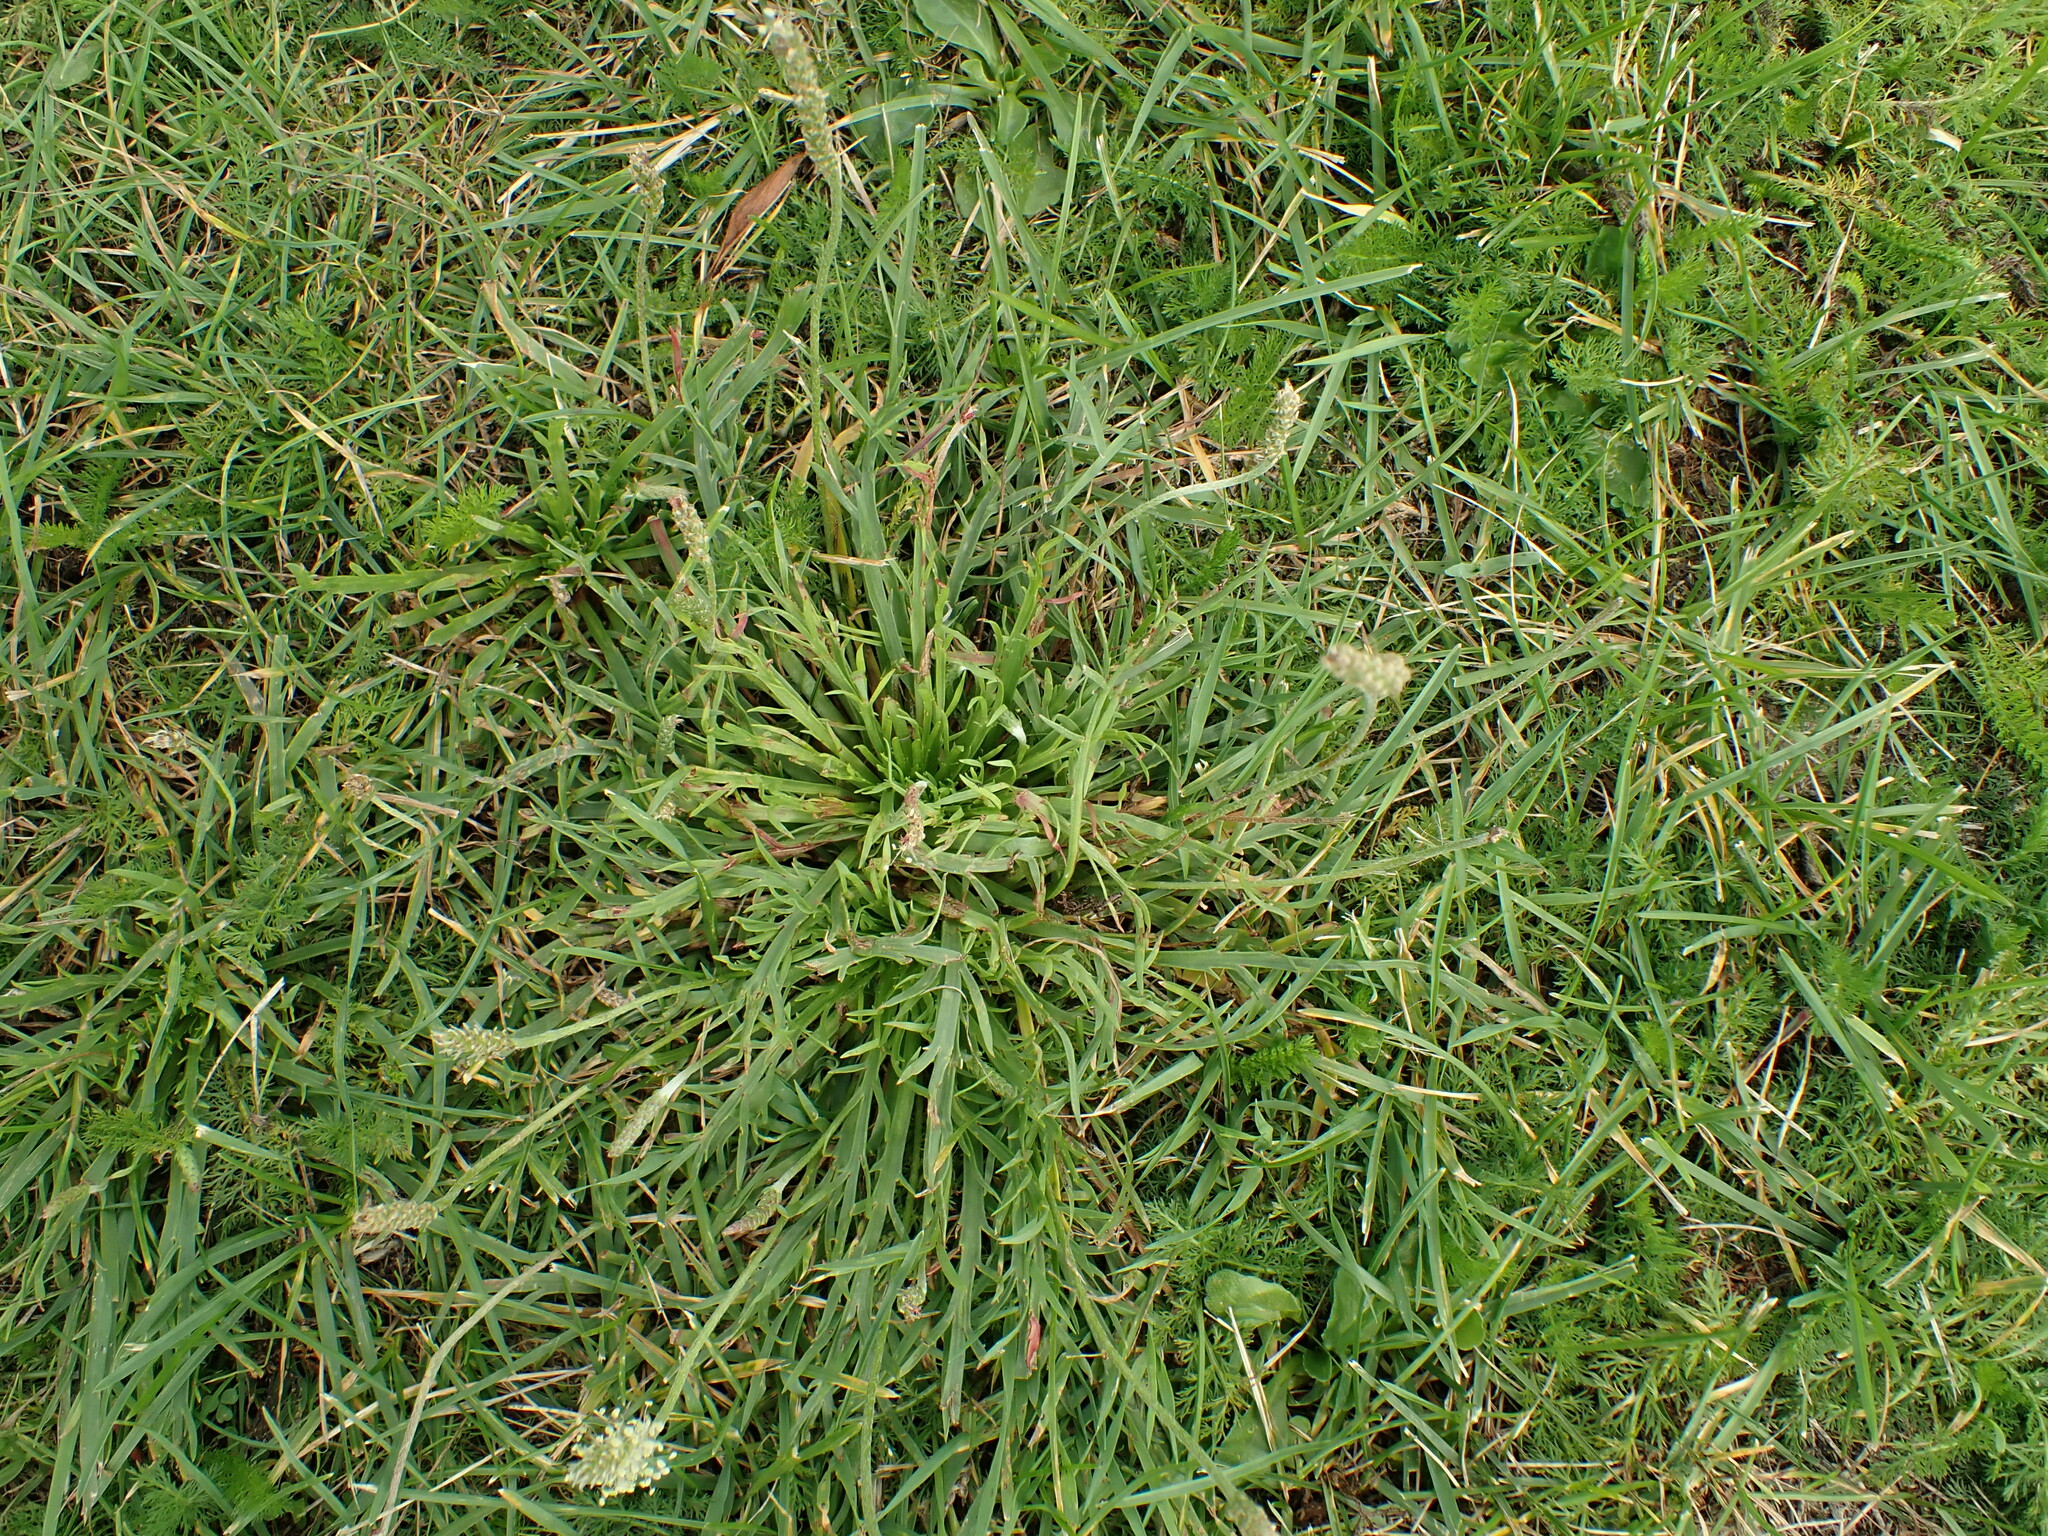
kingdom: Plantae
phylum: Tracheophyta
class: Magnoliopsida
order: Lamiales
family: Plantaginaceae
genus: Plantago
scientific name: Plantago coronopus
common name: Buck's-horn plantain
